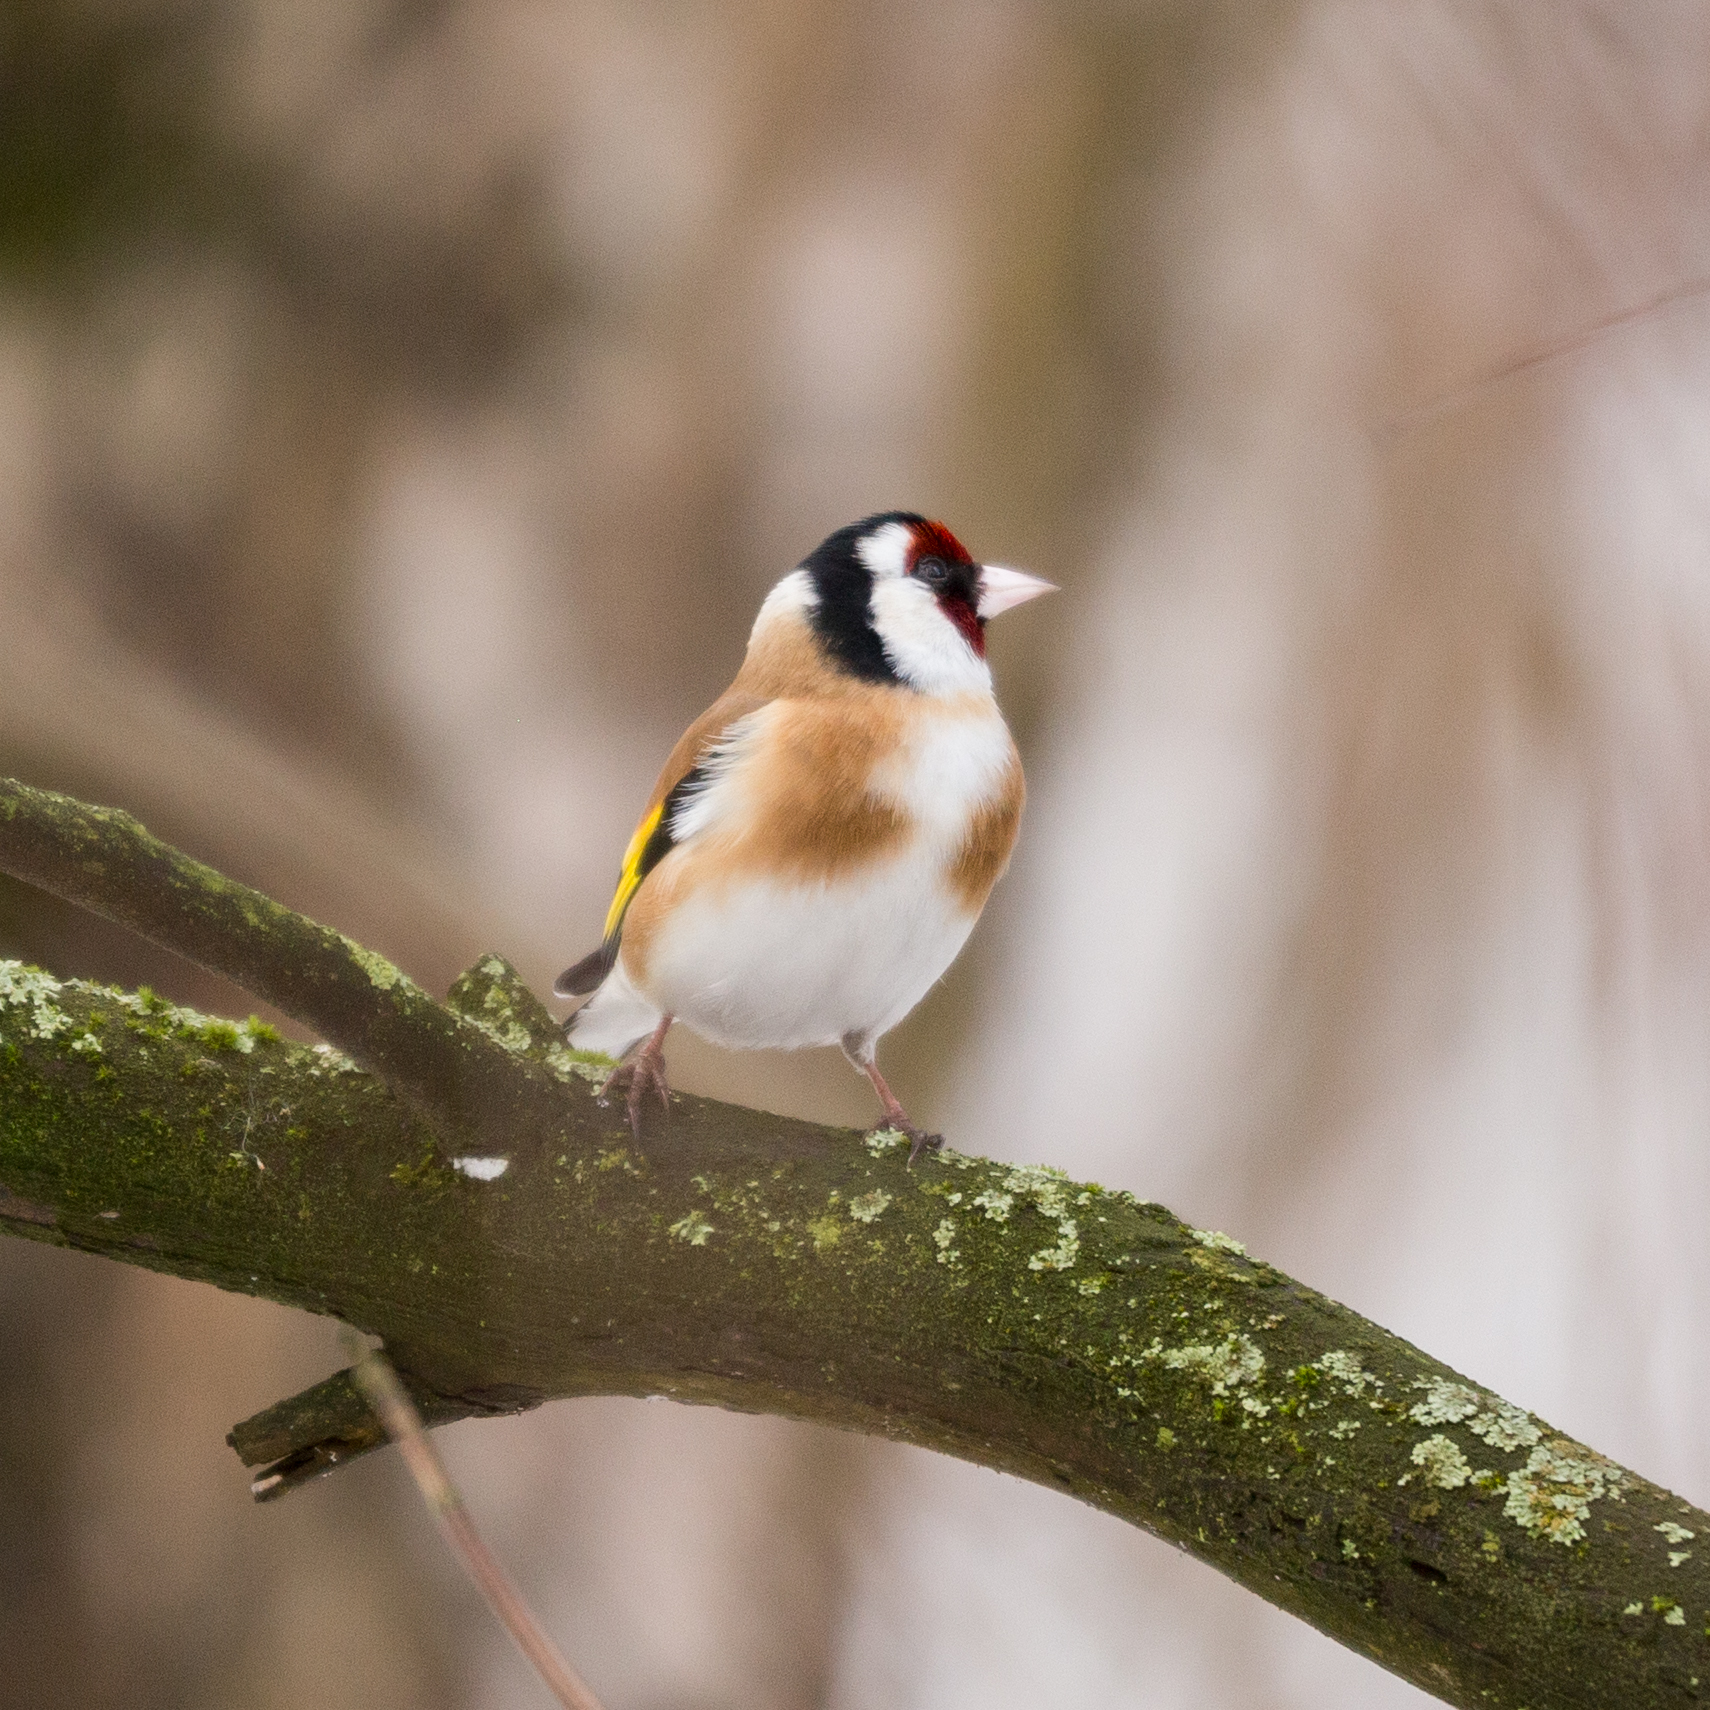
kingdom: Animalia
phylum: Chordata
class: Aves
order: Passeriformes
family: Fringillidae
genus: Carduelis
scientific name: Carduelis carduelis
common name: European goldfinch
